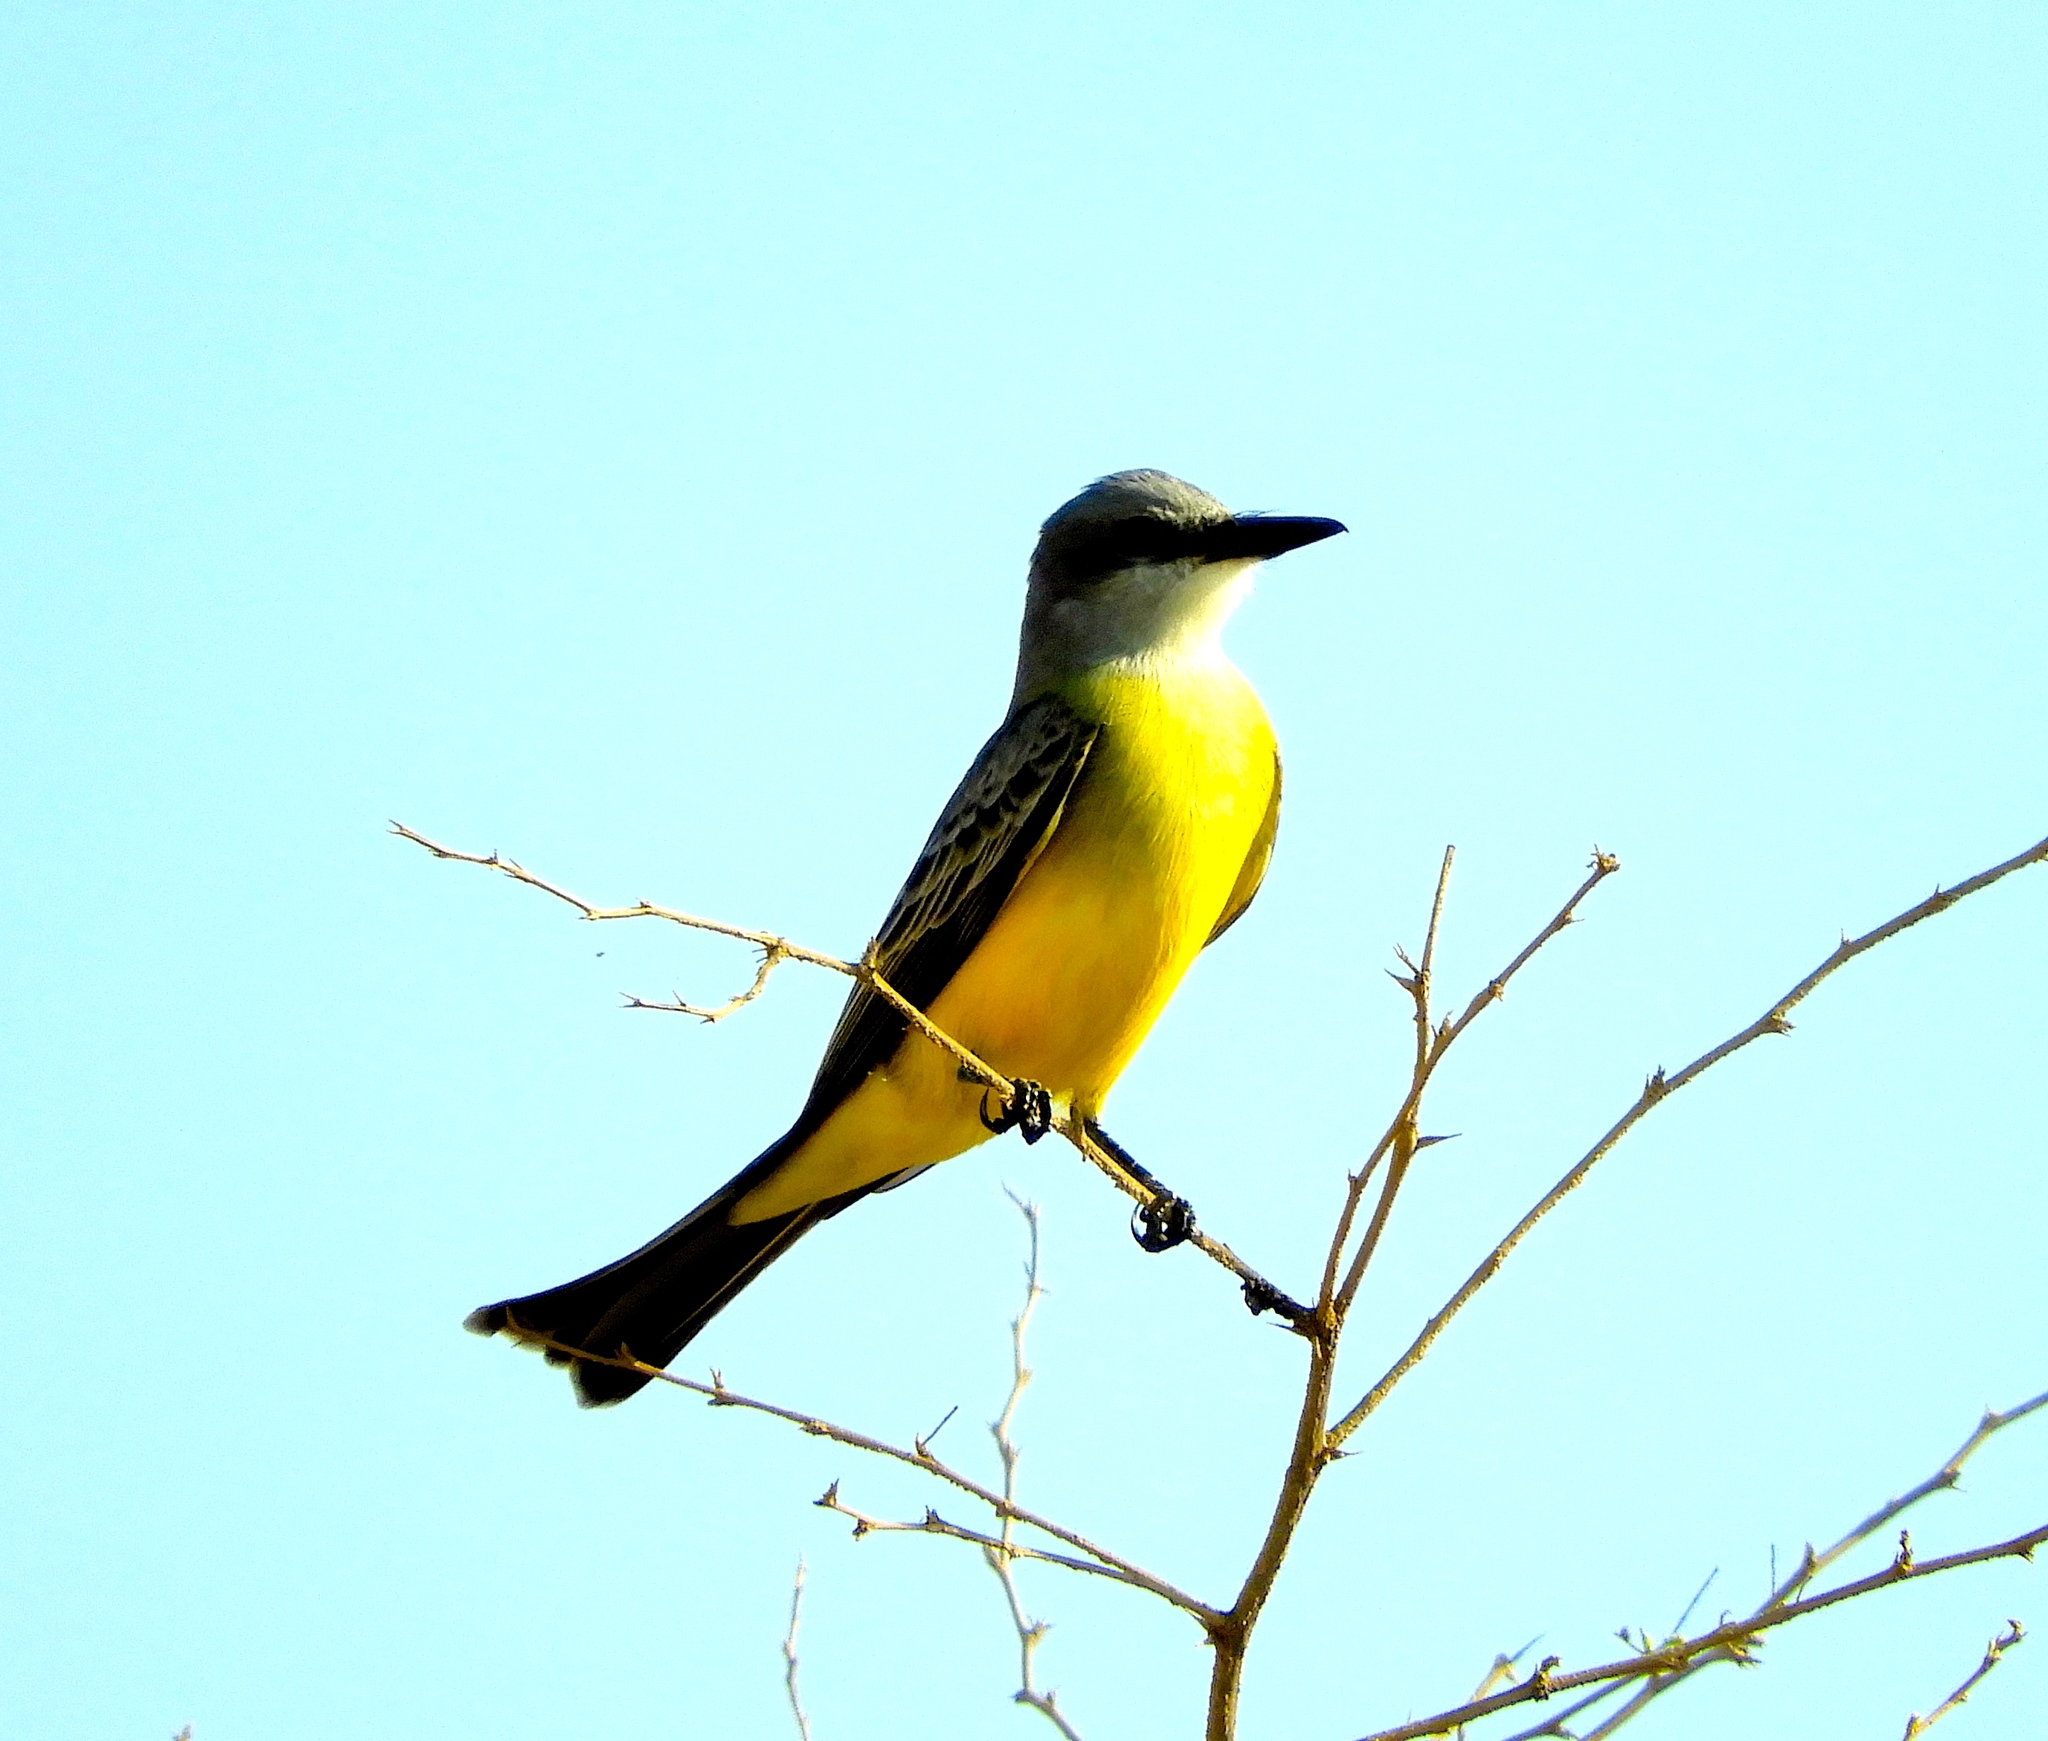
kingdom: Animalia
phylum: Chordata
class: Aves
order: Passeriformes
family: Tyrannidae
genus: Tyrannus
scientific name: Tyrannus melancholicus
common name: Tropical kingbird
